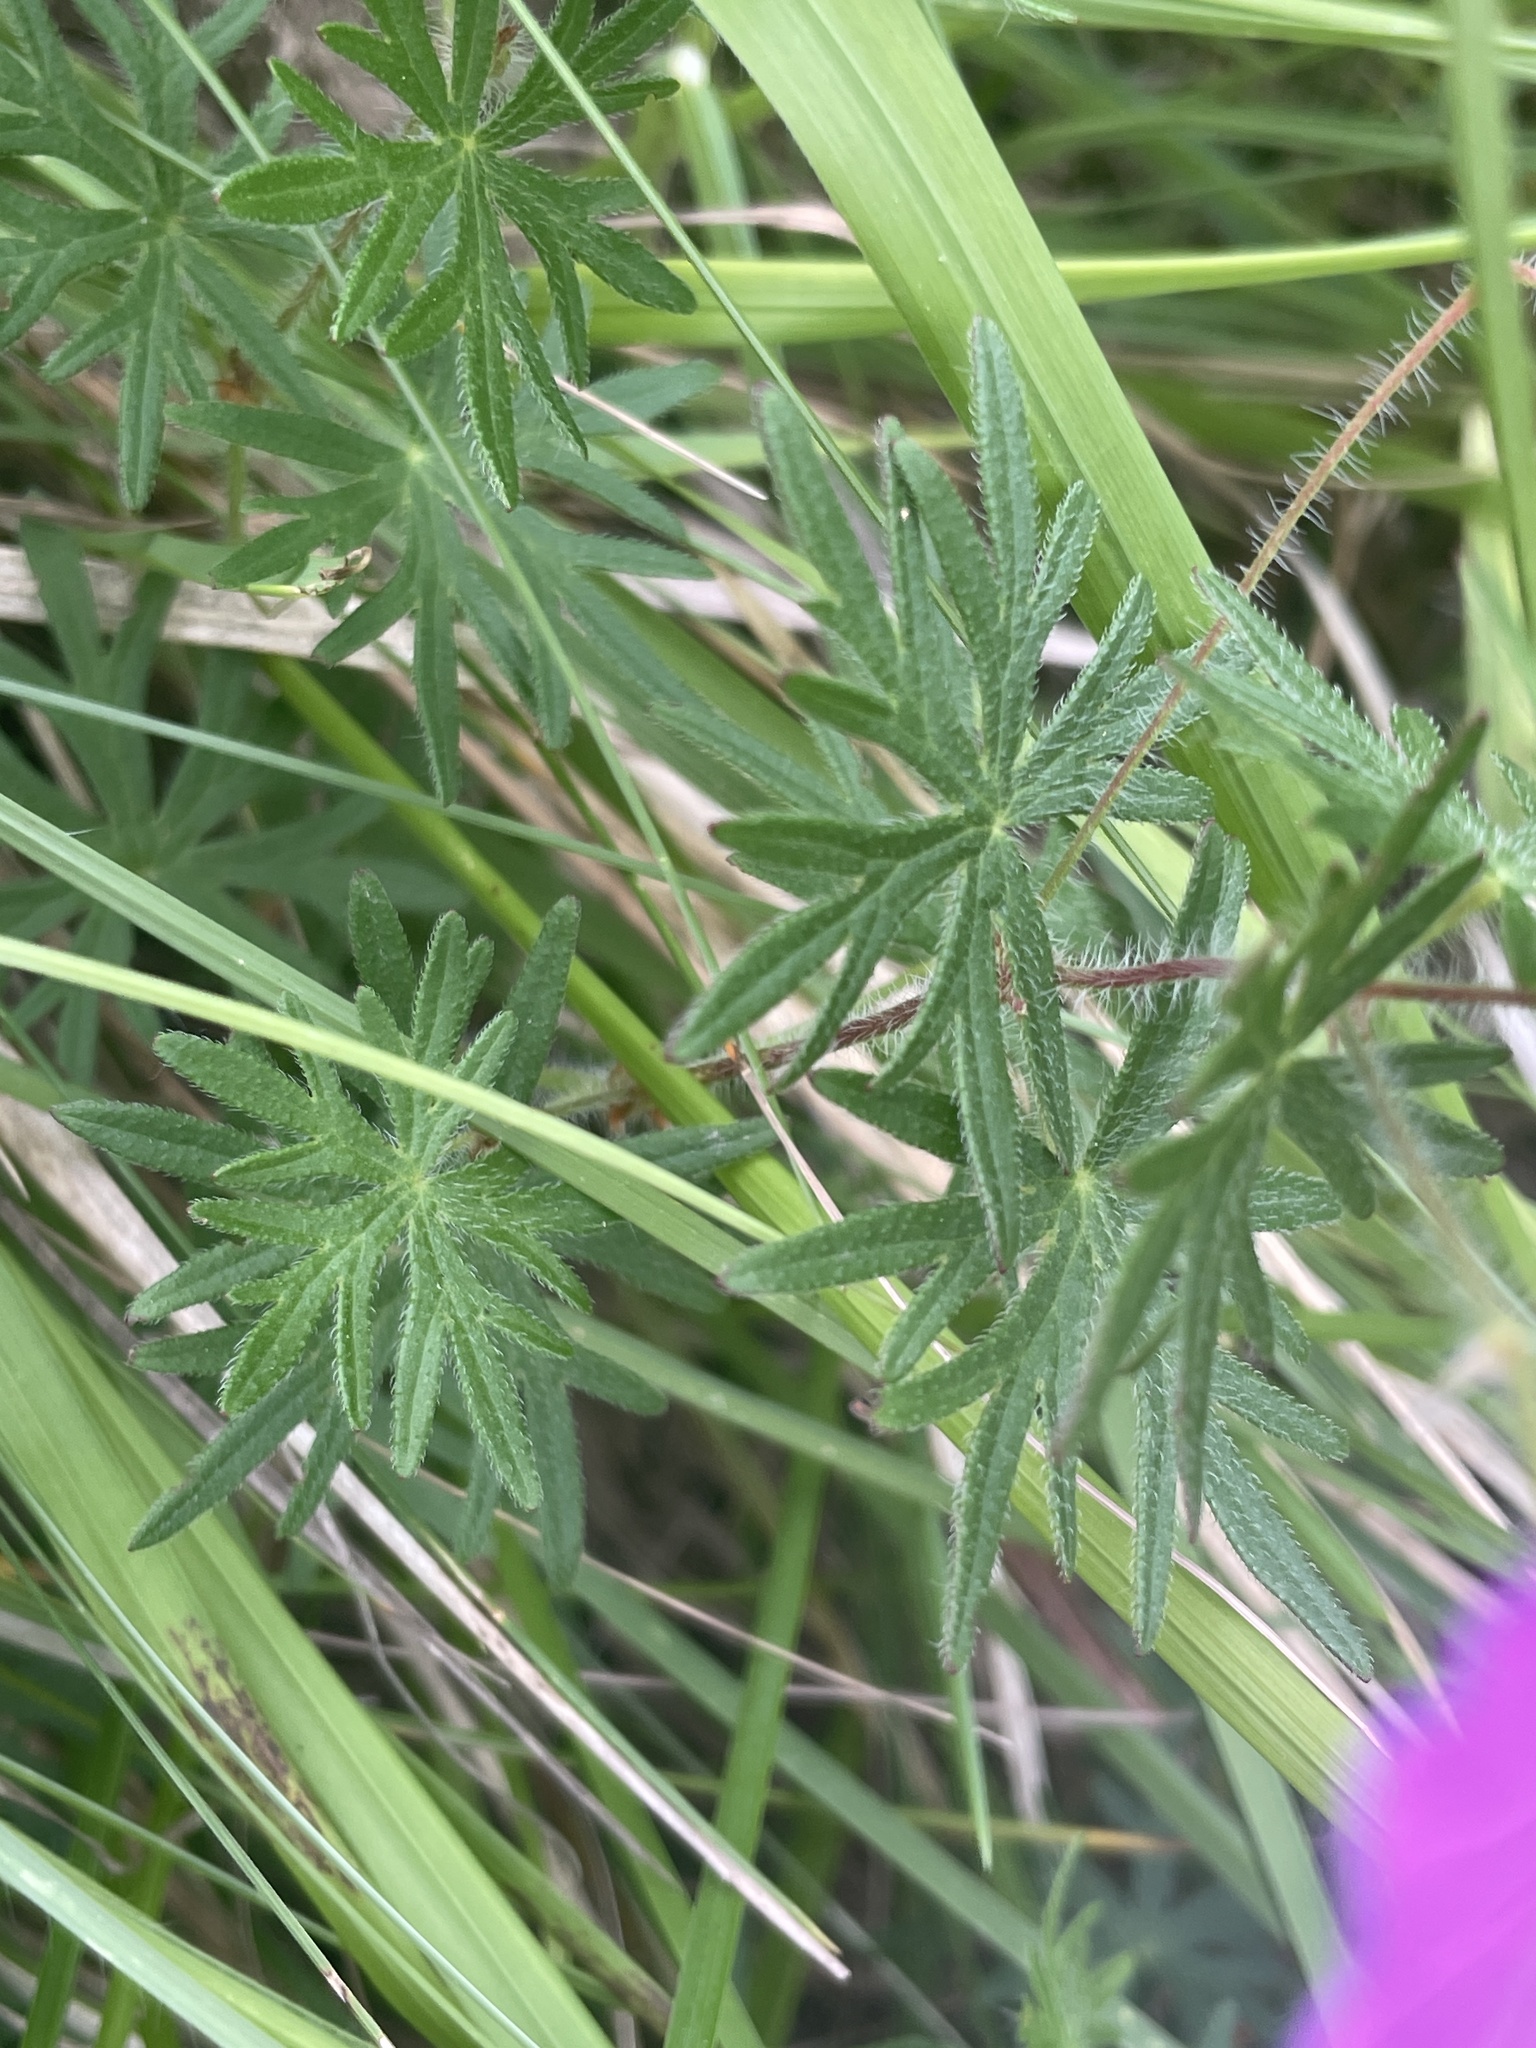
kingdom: Plantae
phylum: Tracheophyta
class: Magnoliopsida
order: Geraniales
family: Geraniaceae
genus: Geranium
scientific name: Geranium sanguineum
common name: Bloody crane's-bill
